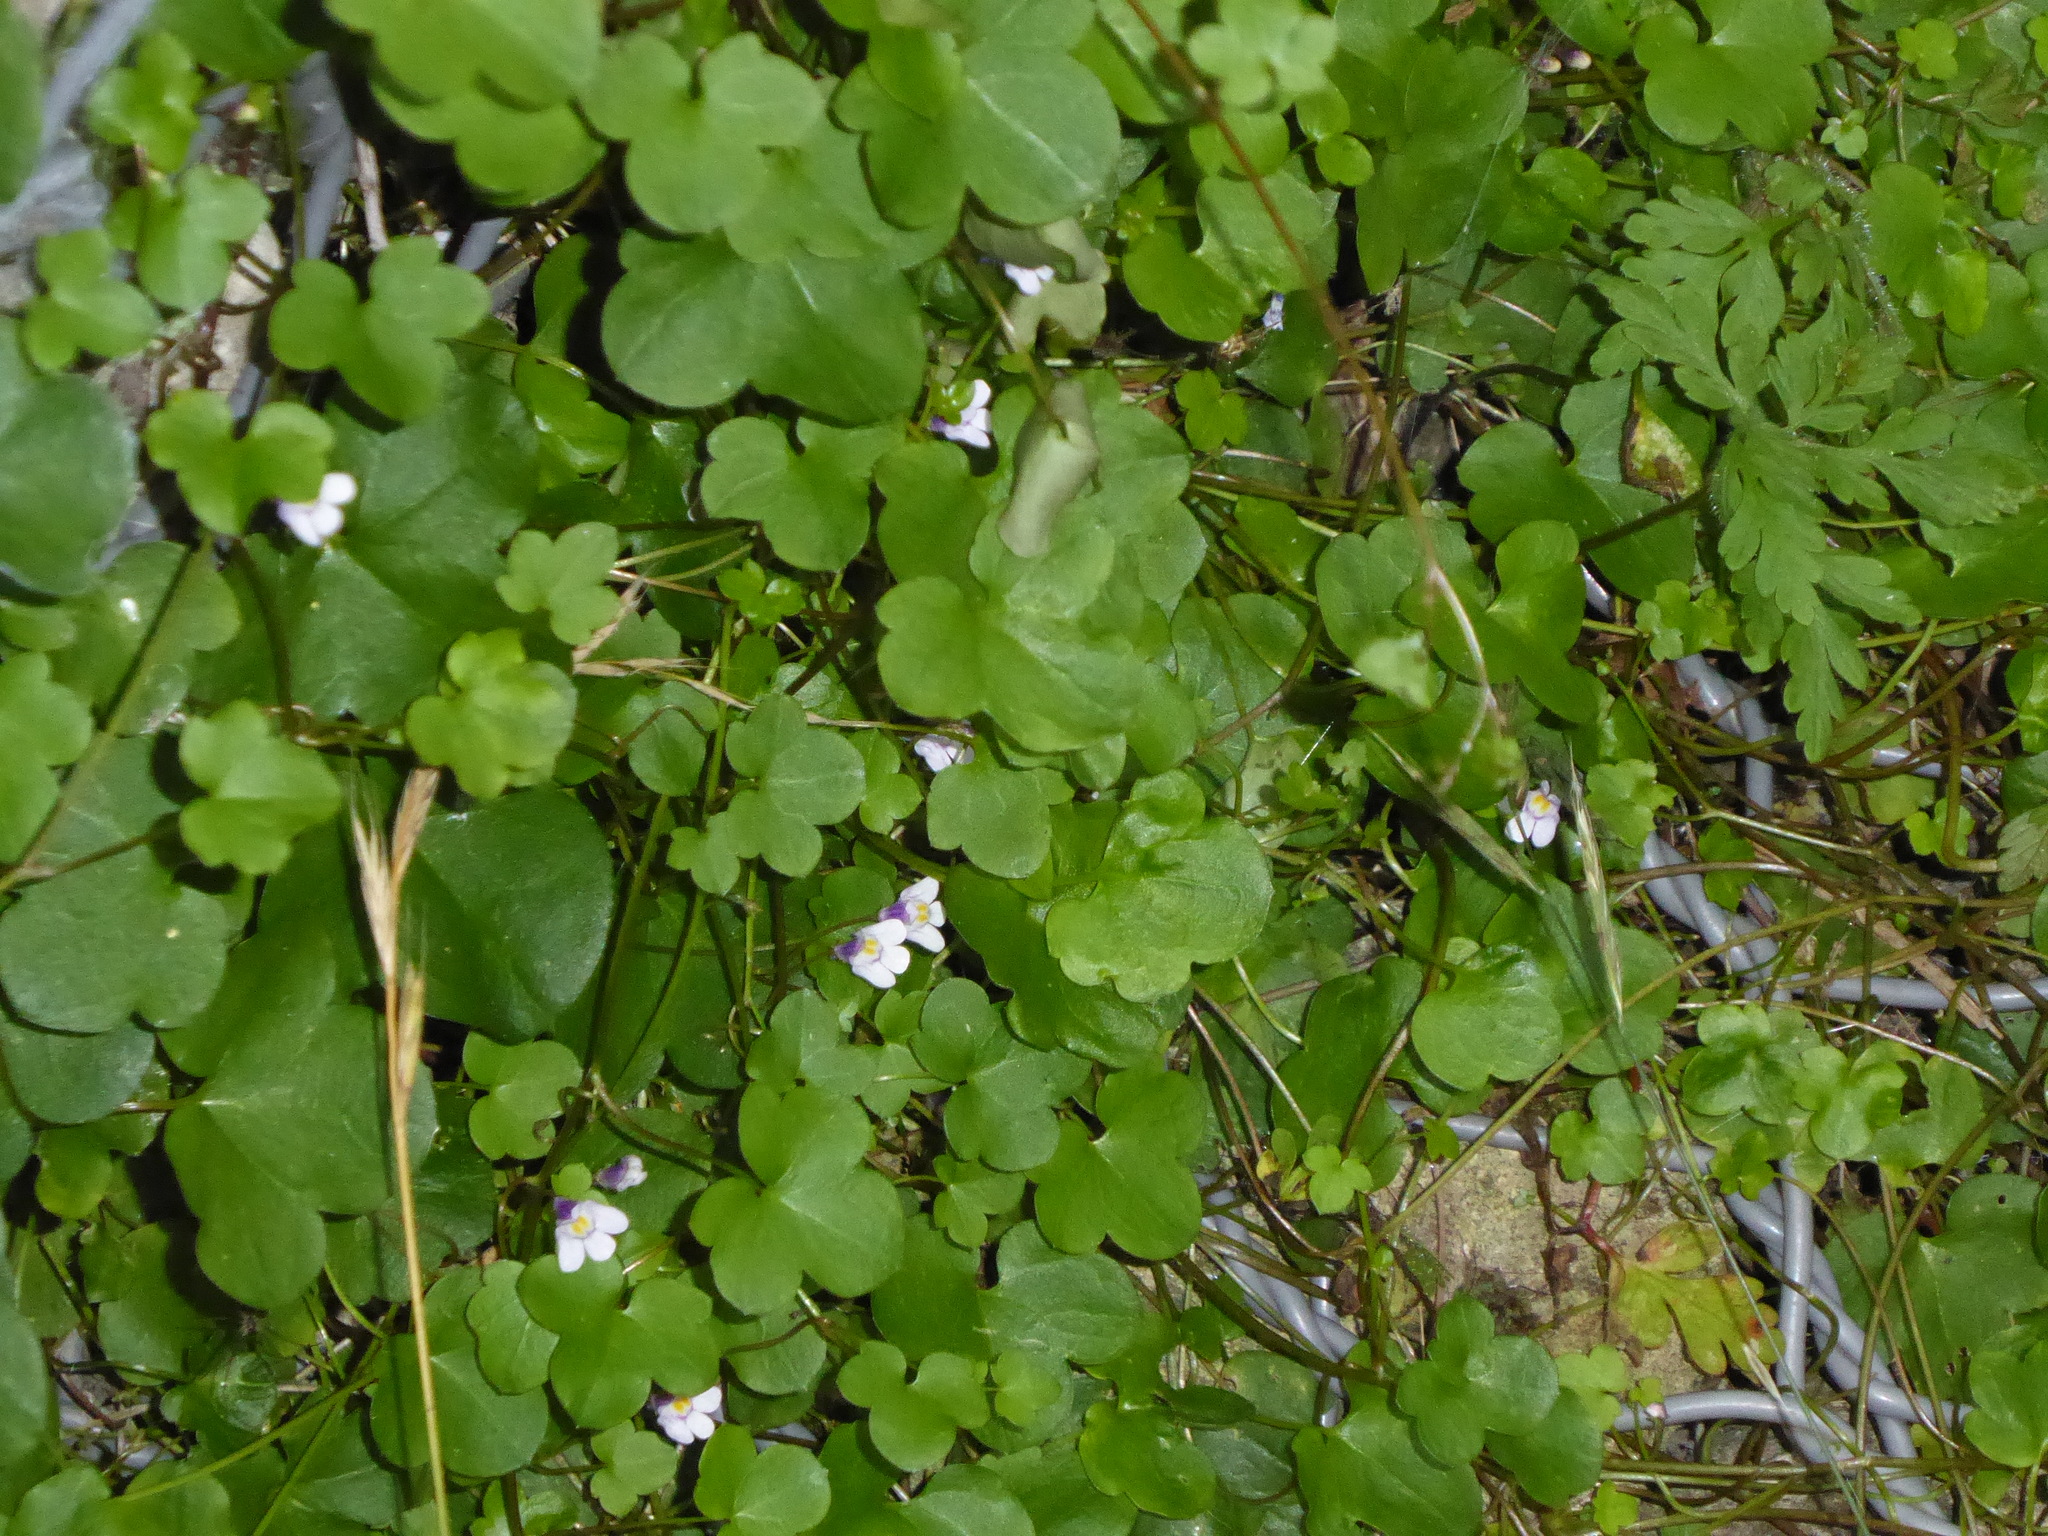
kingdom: Plantae
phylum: Tracheophyta
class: Magnoliopsida
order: Lamiales
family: Plantaginaceae
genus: Cymbalaria
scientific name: Cymbalaria muralis
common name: Ivy-leaved toadflax
